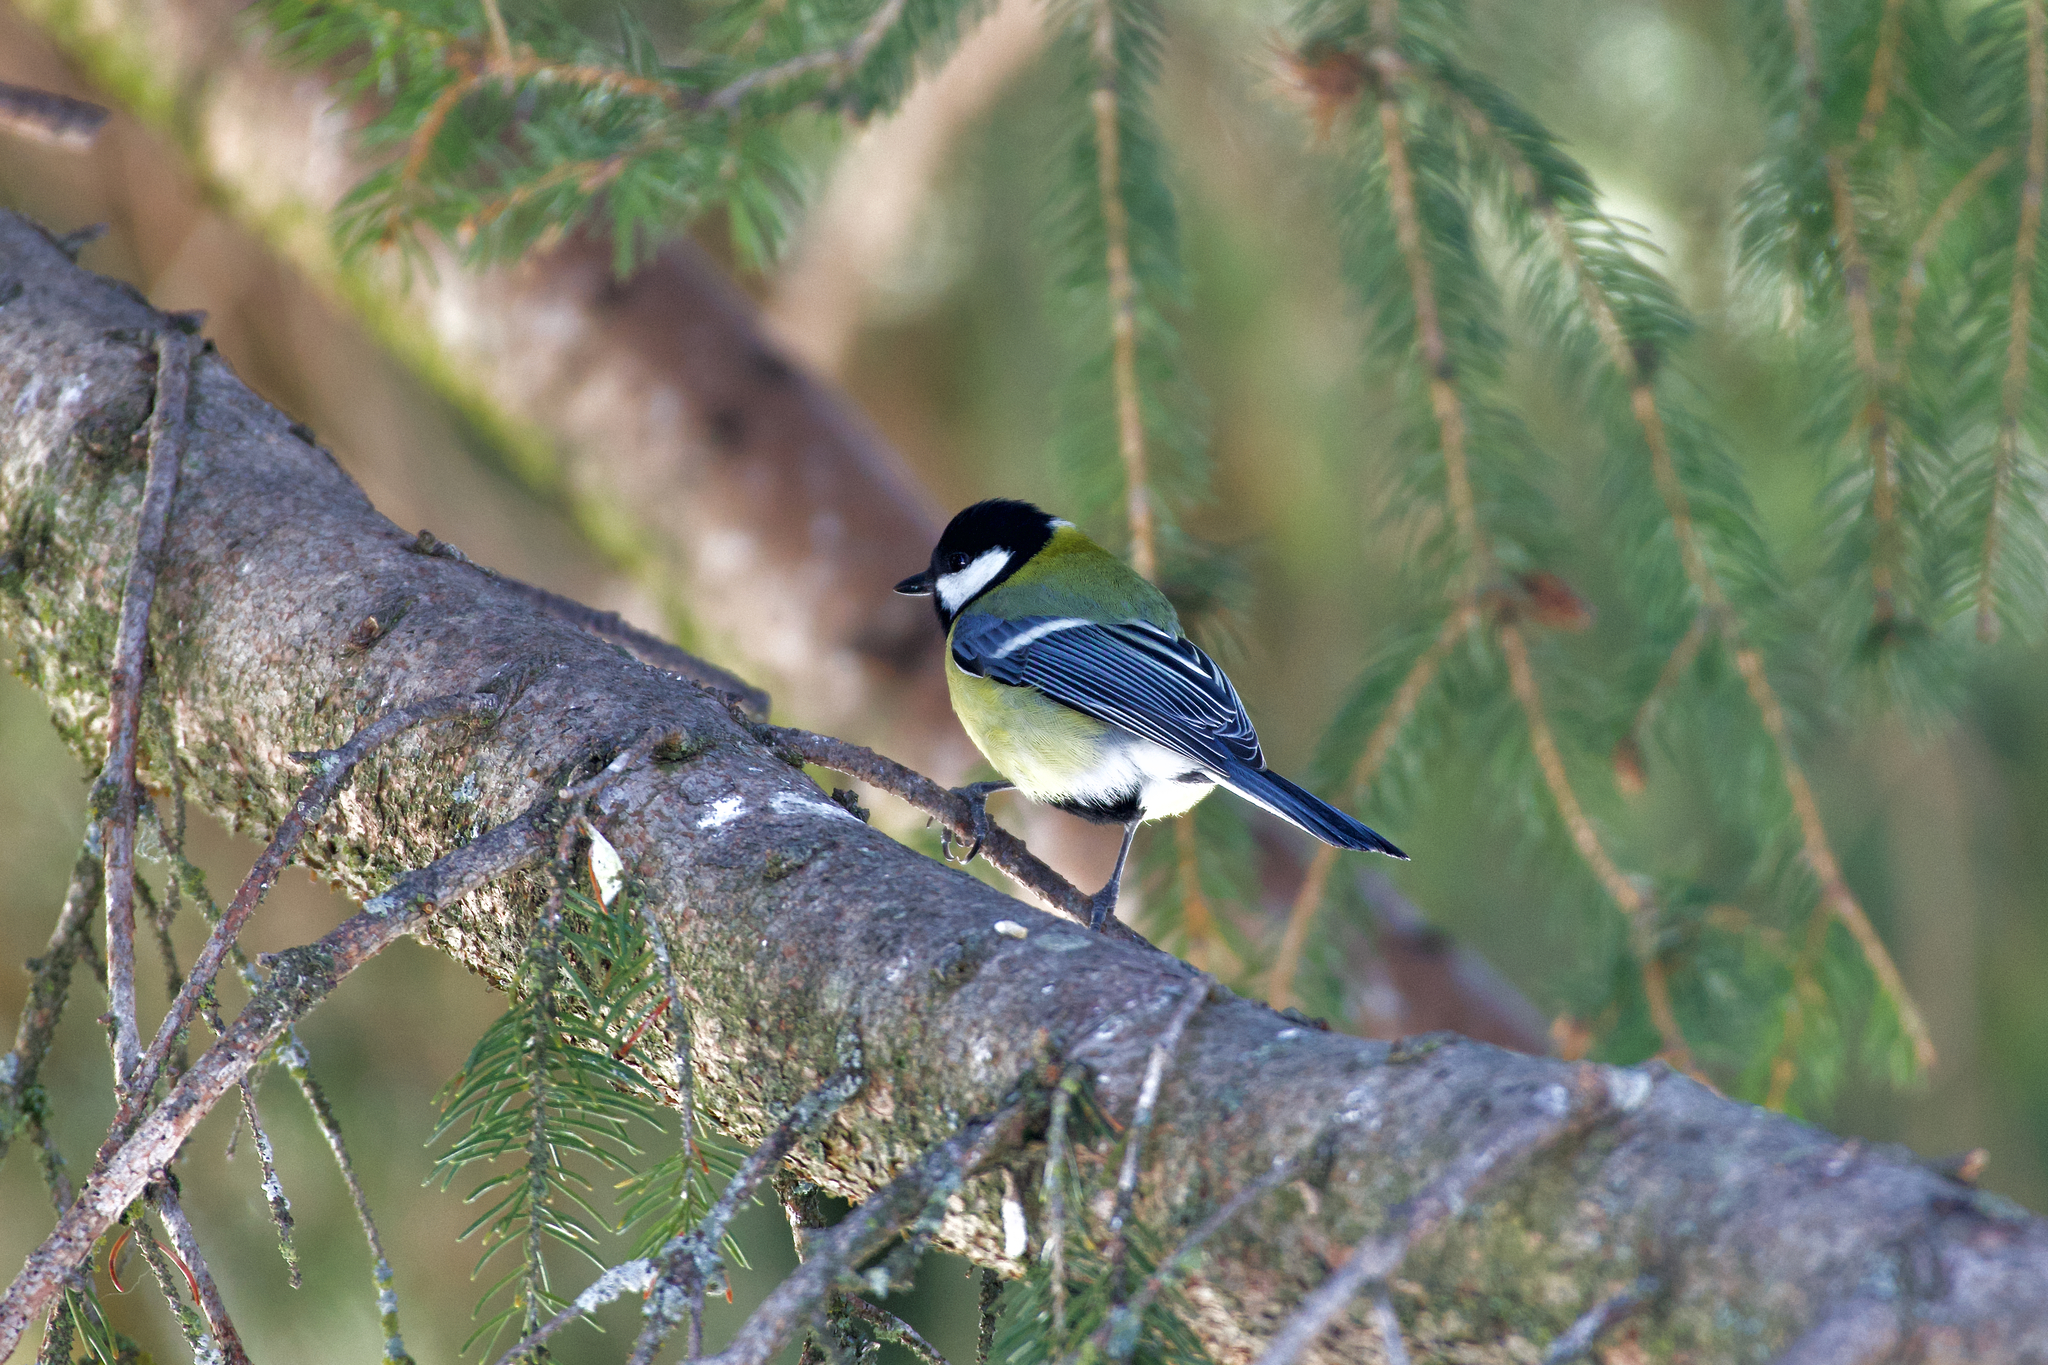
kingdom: Animalia
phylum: Chordata
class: Aves
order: Passeriformes
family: Paridae
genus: Parus
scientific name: Parus major
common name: Great tit
